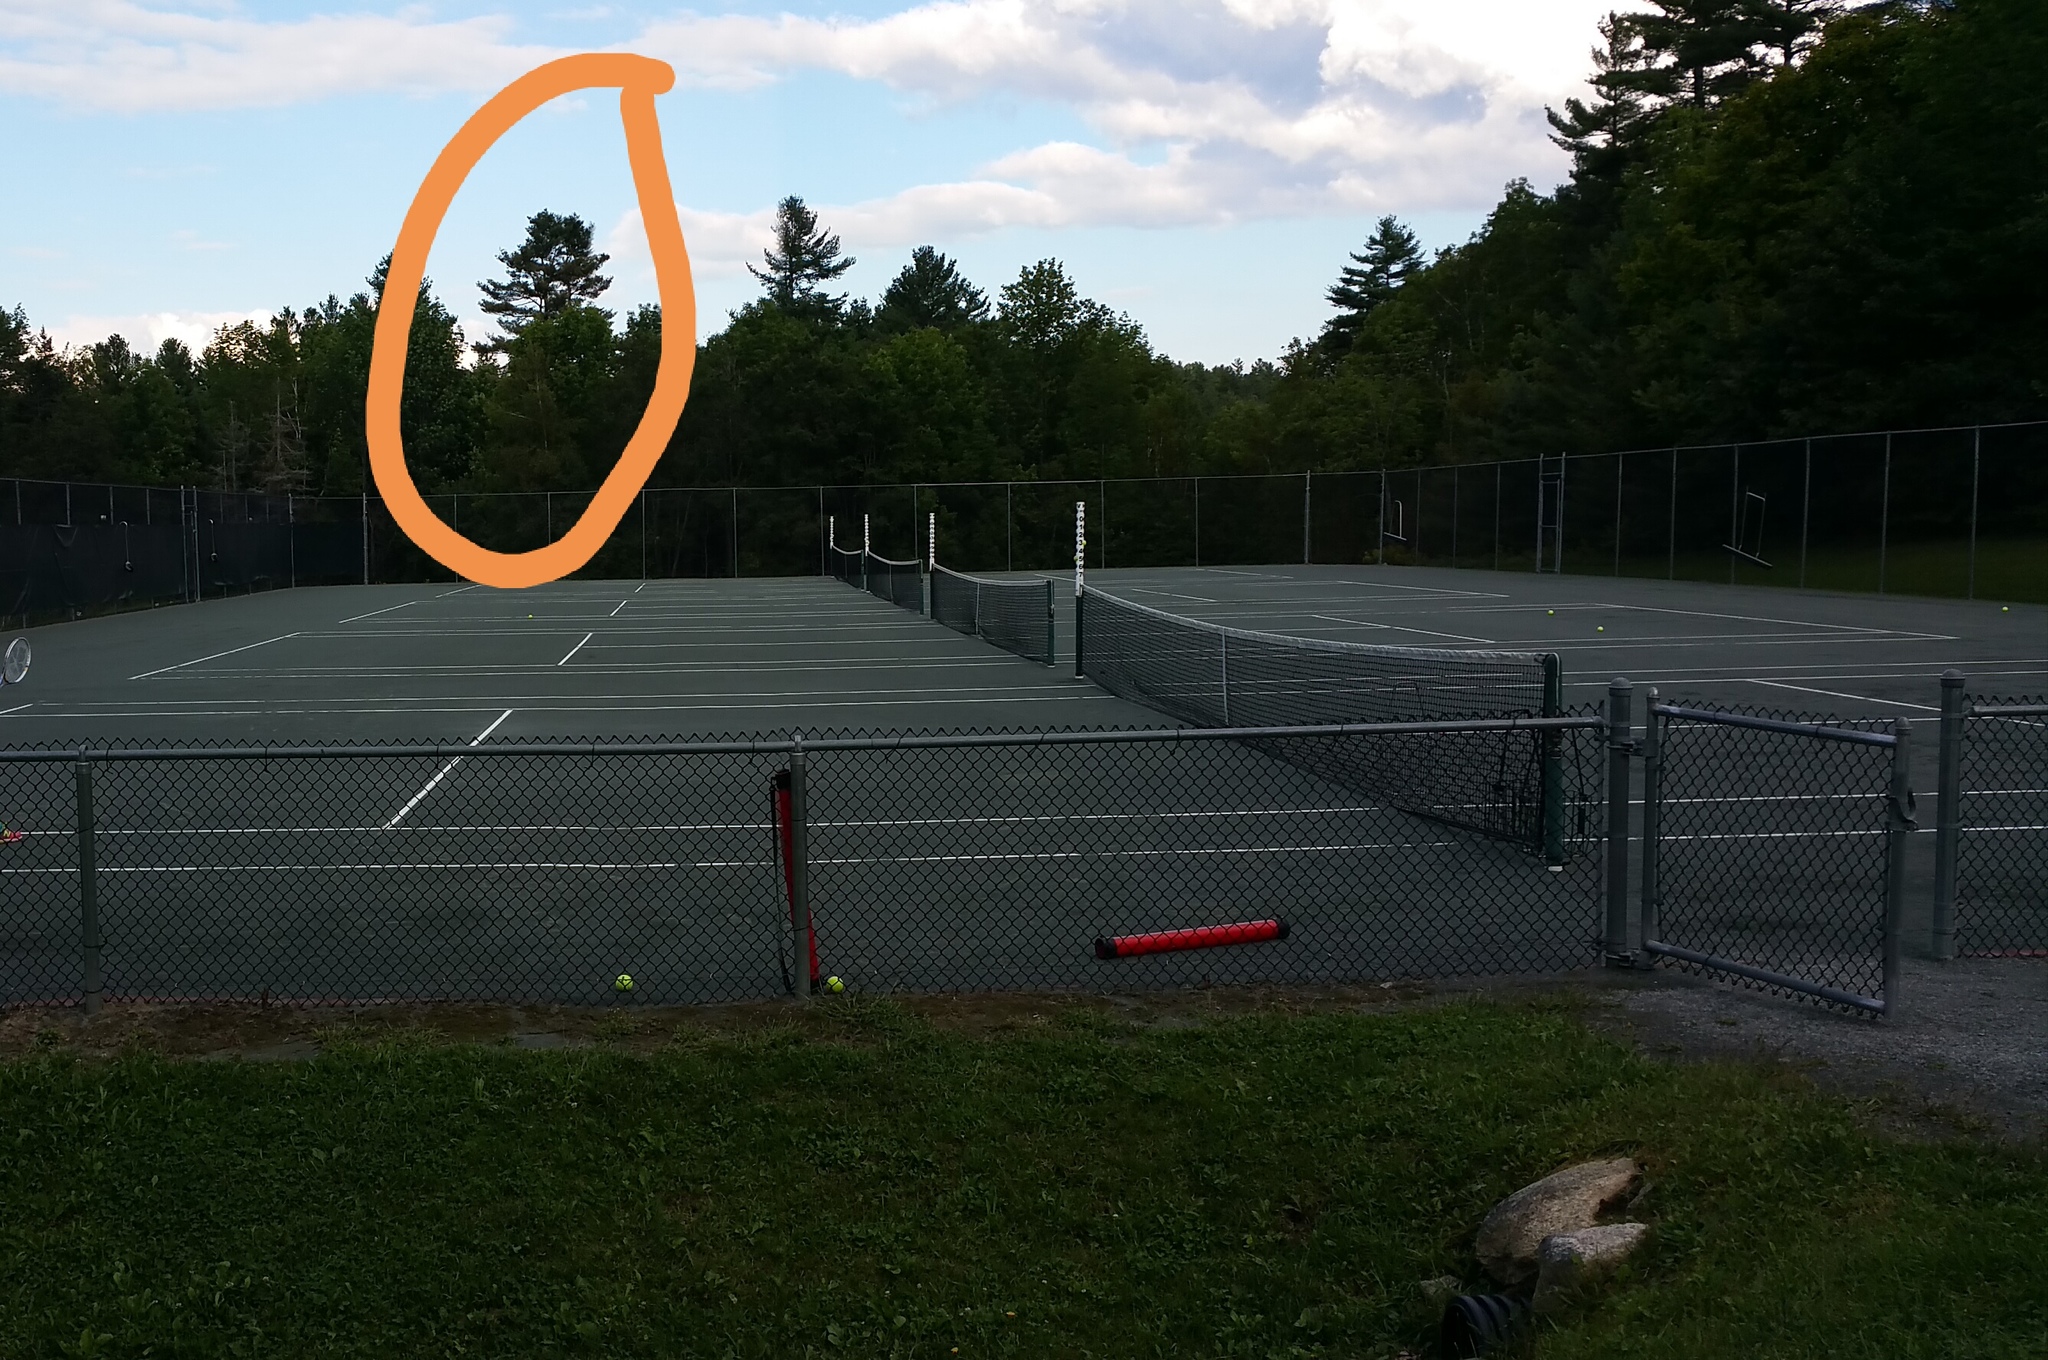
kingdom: Plantae
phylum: Tracheophyta
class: Pinopsida
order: Pinales
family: Pinaceae
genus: Pinus
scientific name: Pinus strobus
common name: Weymouth pine
